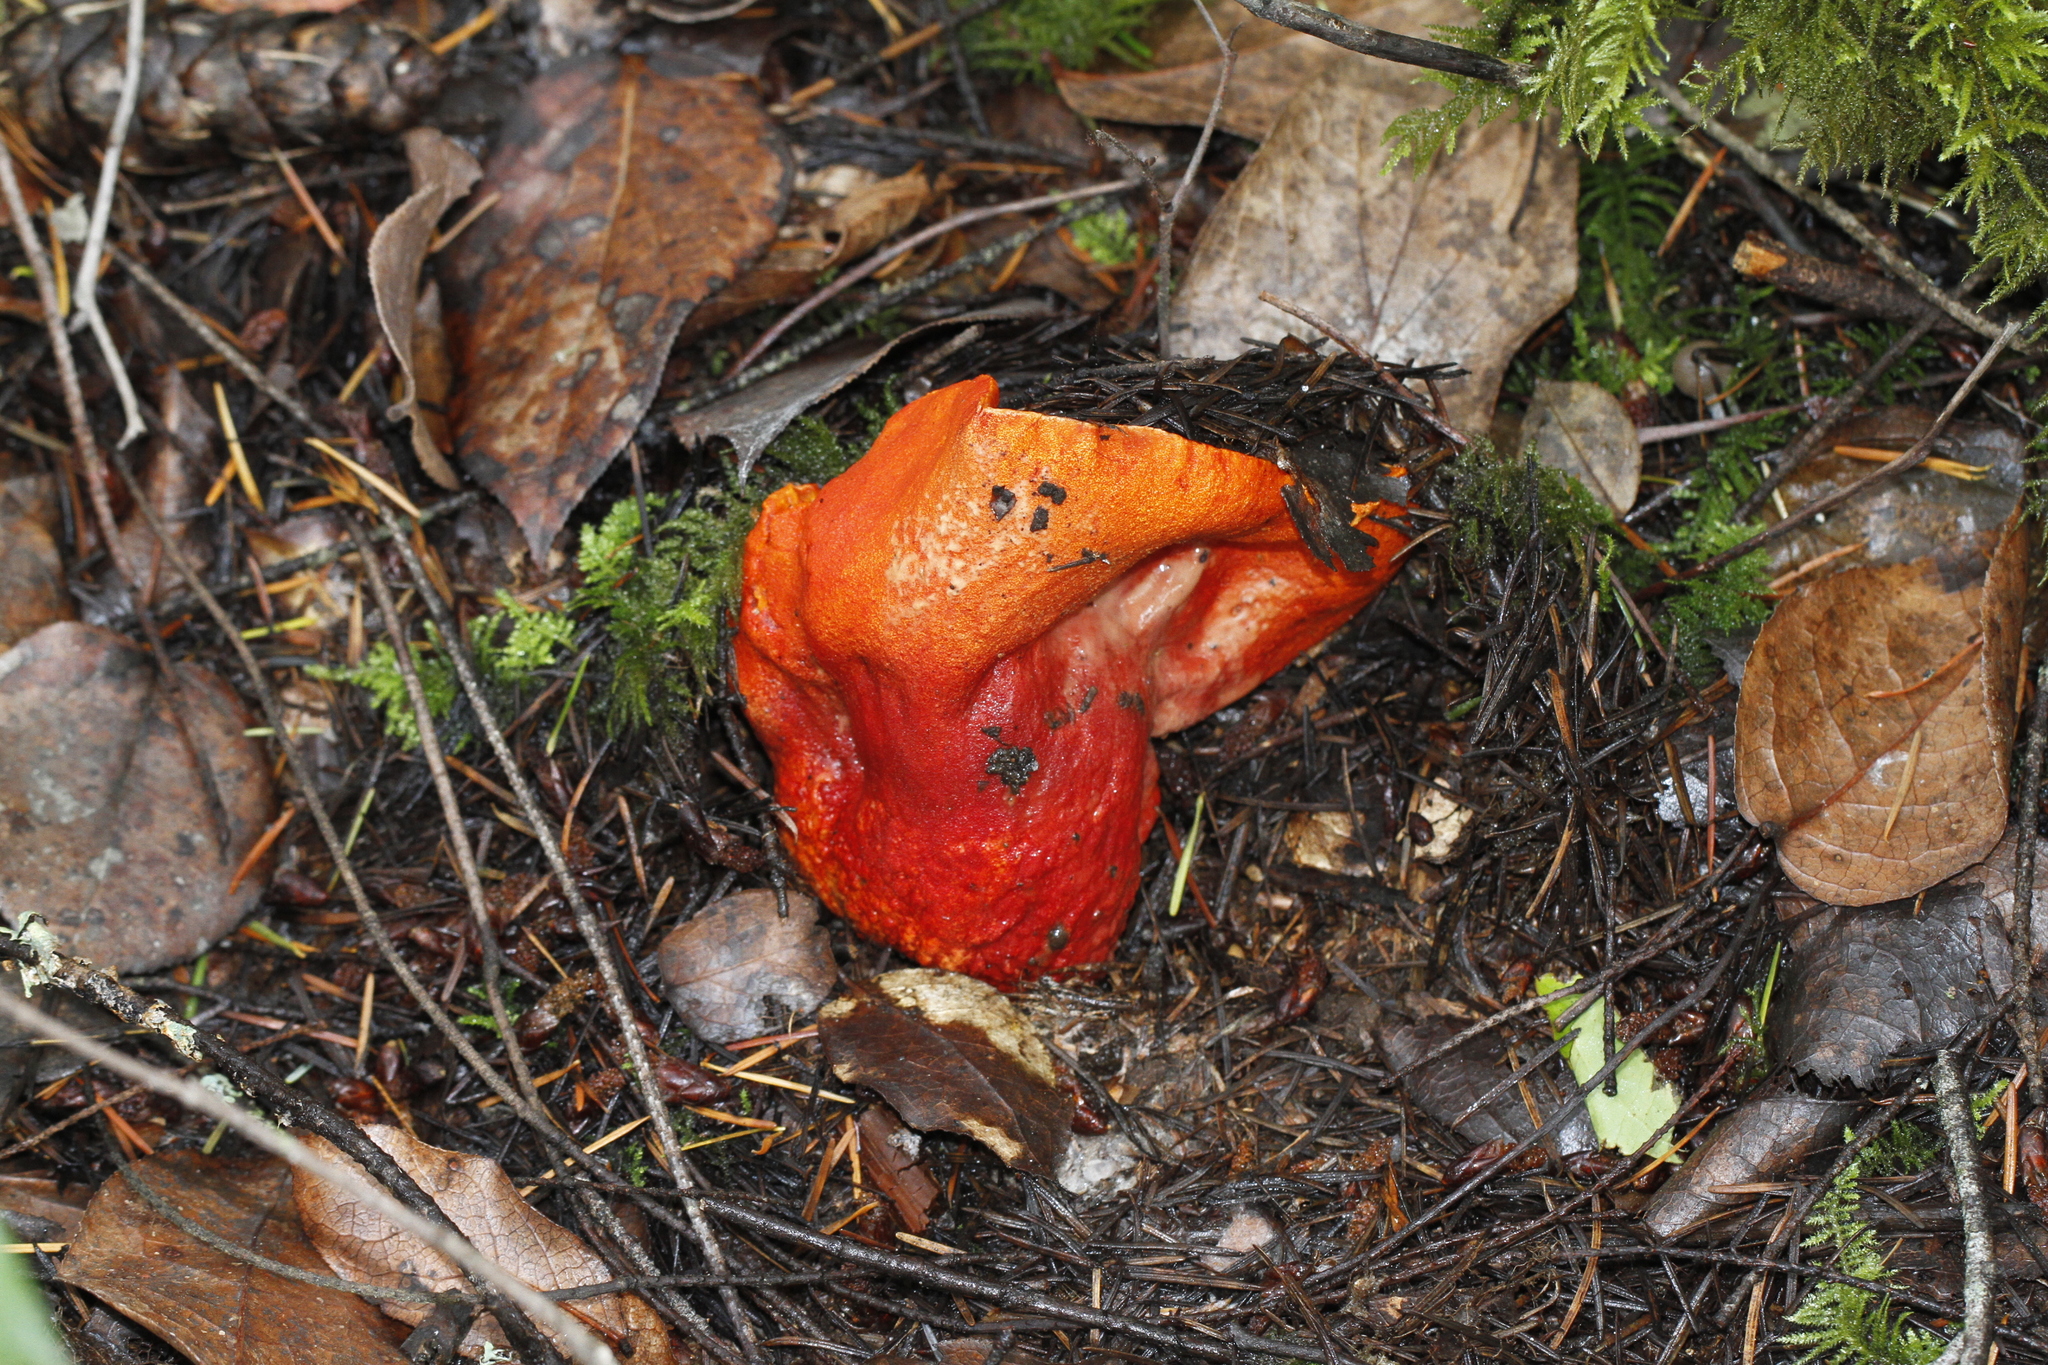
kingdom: Fungi
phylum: Ascomycota
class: Sordariomycetes
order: Hypocreales
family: Hypocreaceae
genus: Hypomyces
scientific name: Hypomyces lactifluorum
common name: Lobster mushroom
